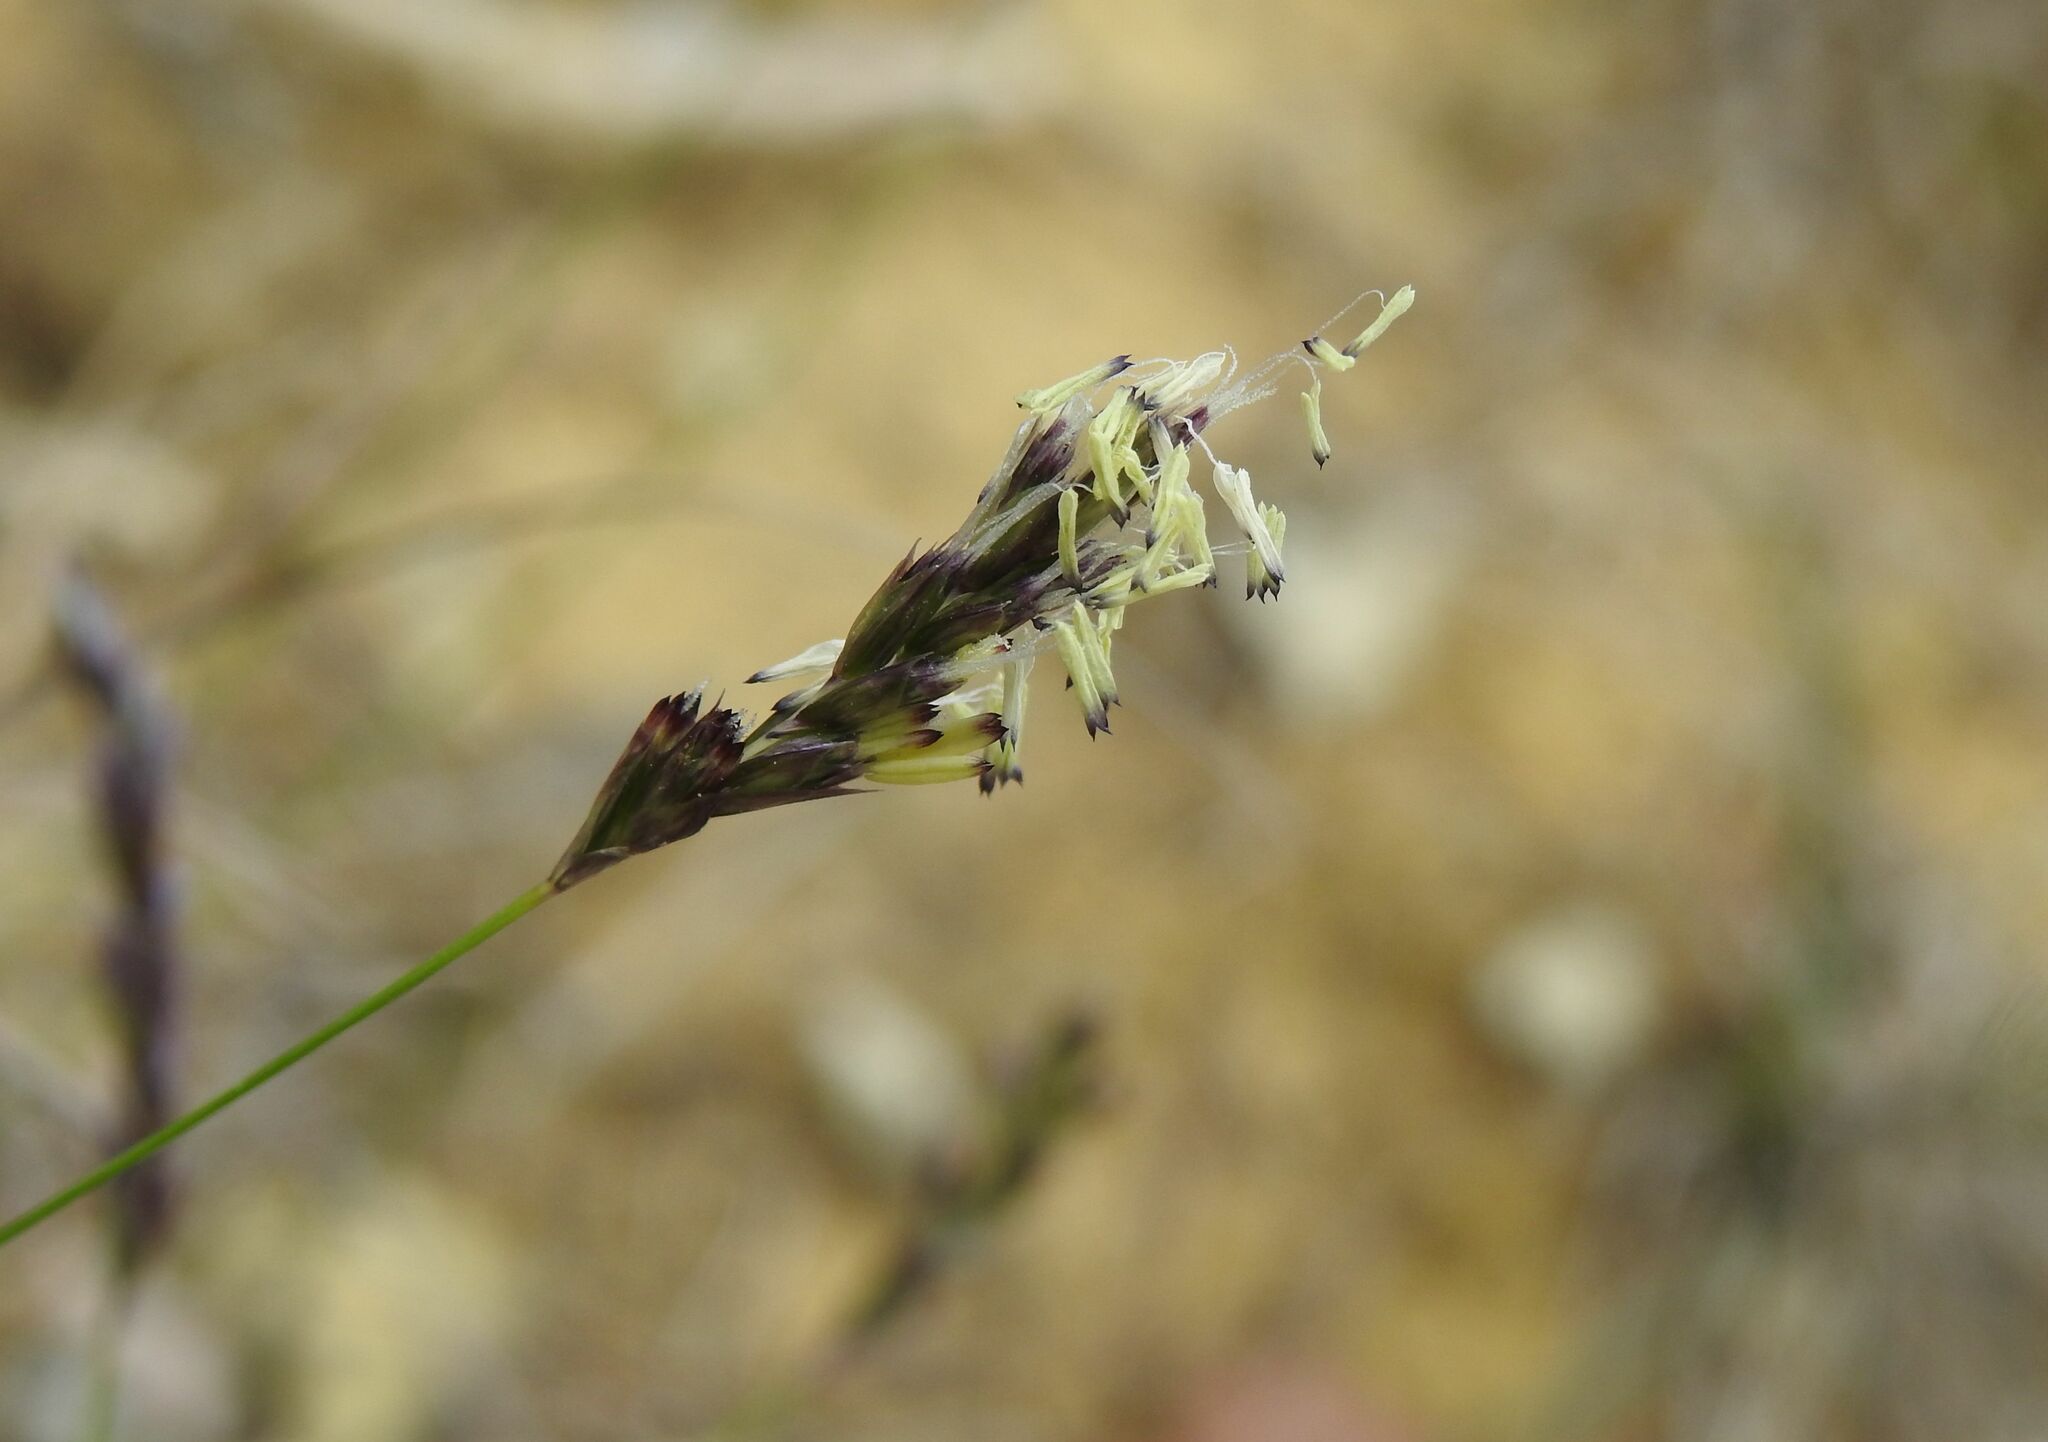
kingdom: Plantae
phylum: Tracheophyta
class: Liliopsida
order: Poales
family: Poaceae
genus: Sesleria
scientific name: Sesleria caerulea
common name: Blue moor-grass
